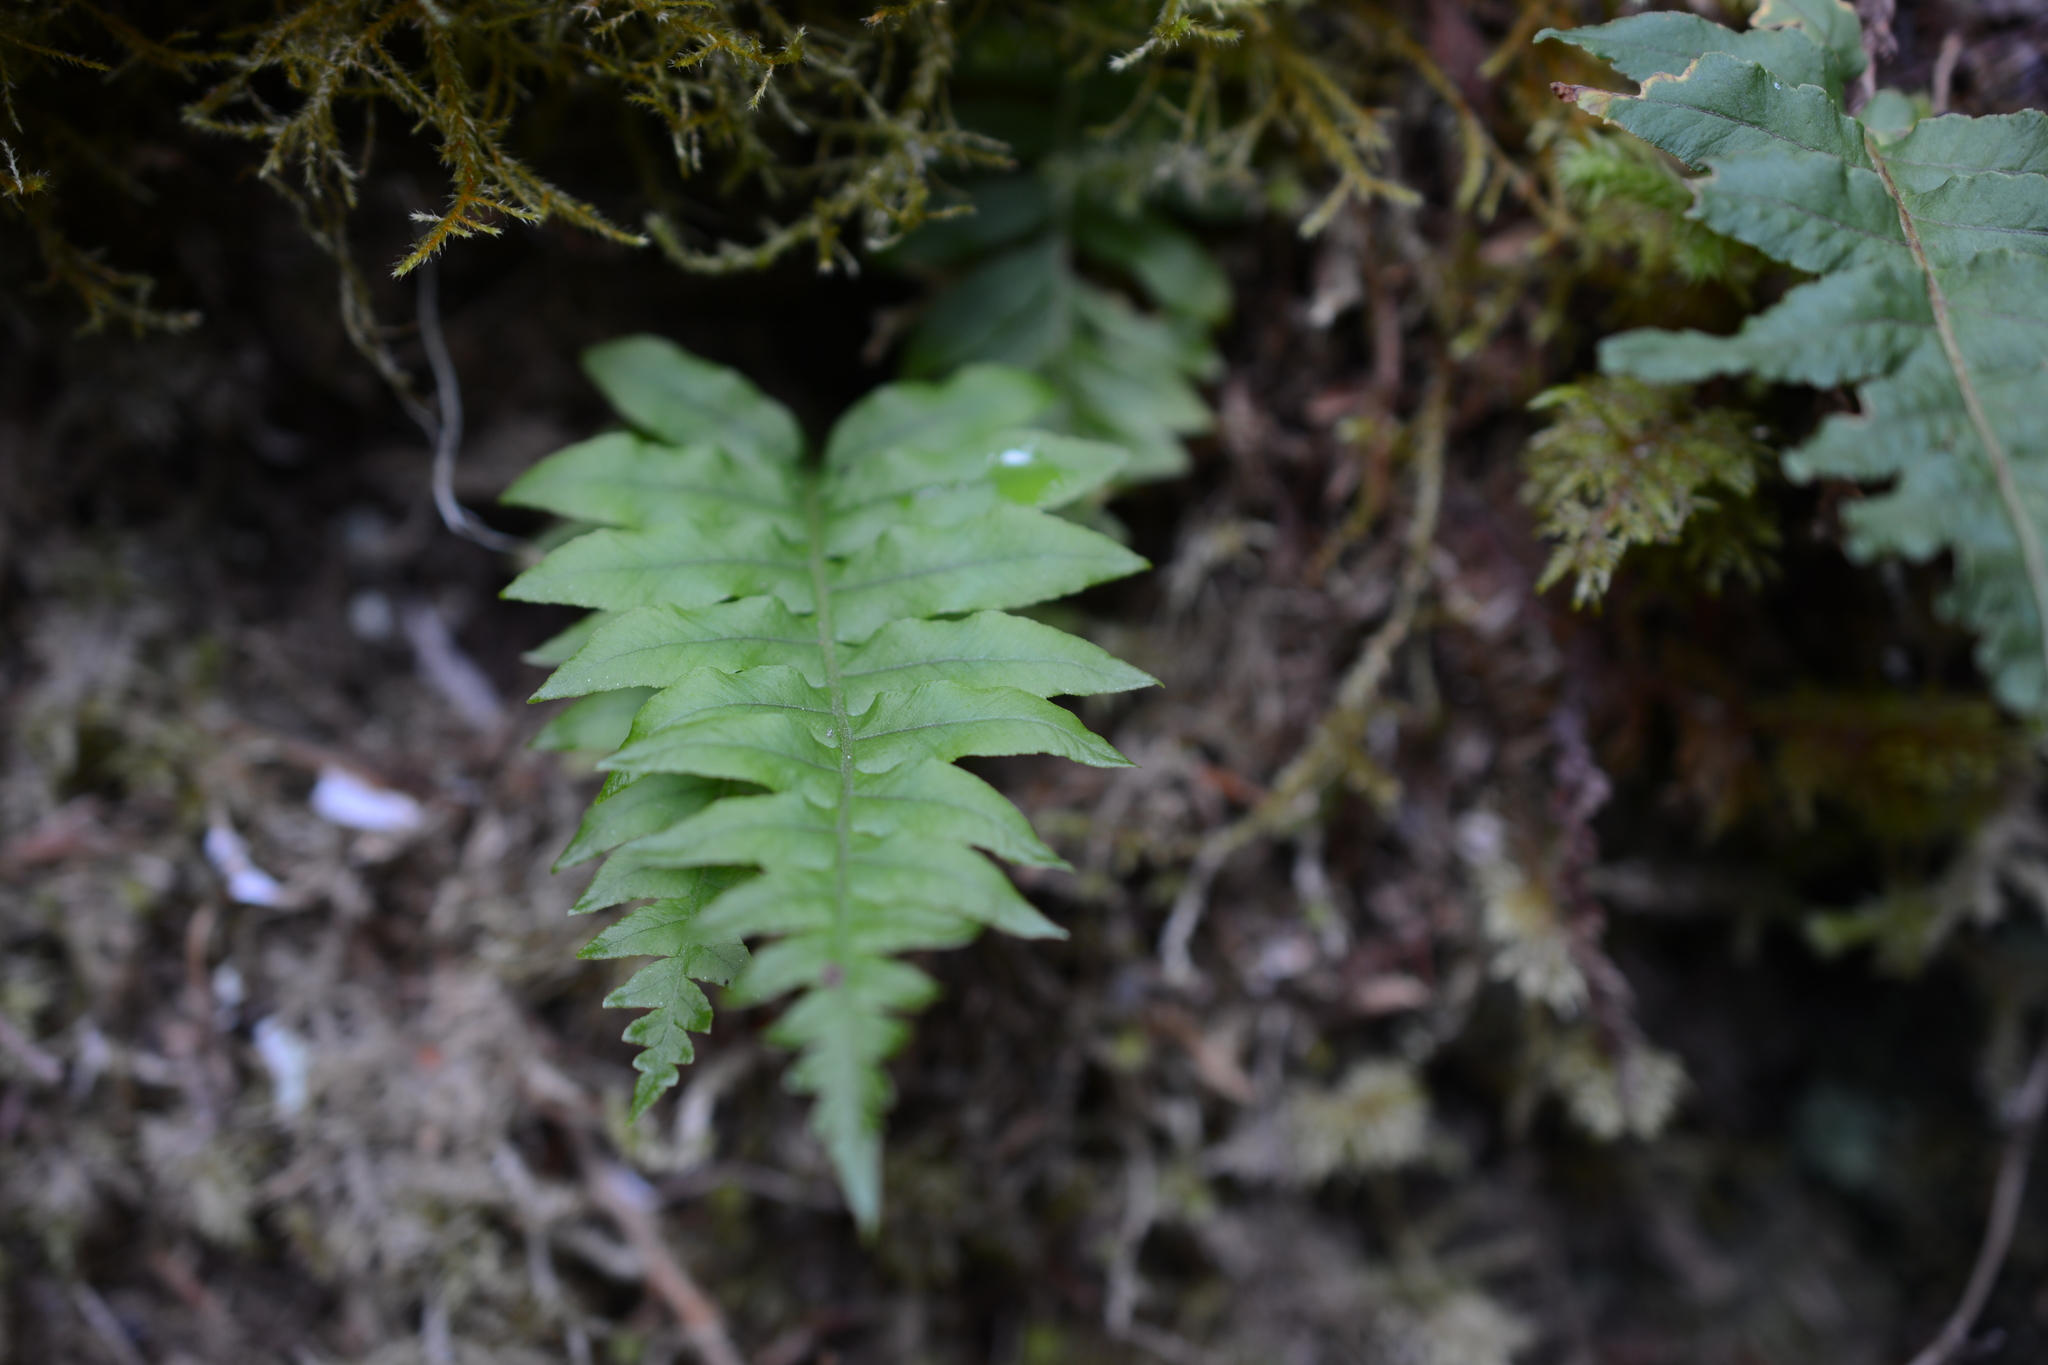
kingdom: Plantae
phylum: Tracheophyta
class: Polypodiopsida
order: Polypodiales
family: Polypodiaceae
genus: Polypodium
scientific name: Polypodium glycyrrhiza
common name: Licorice fern
